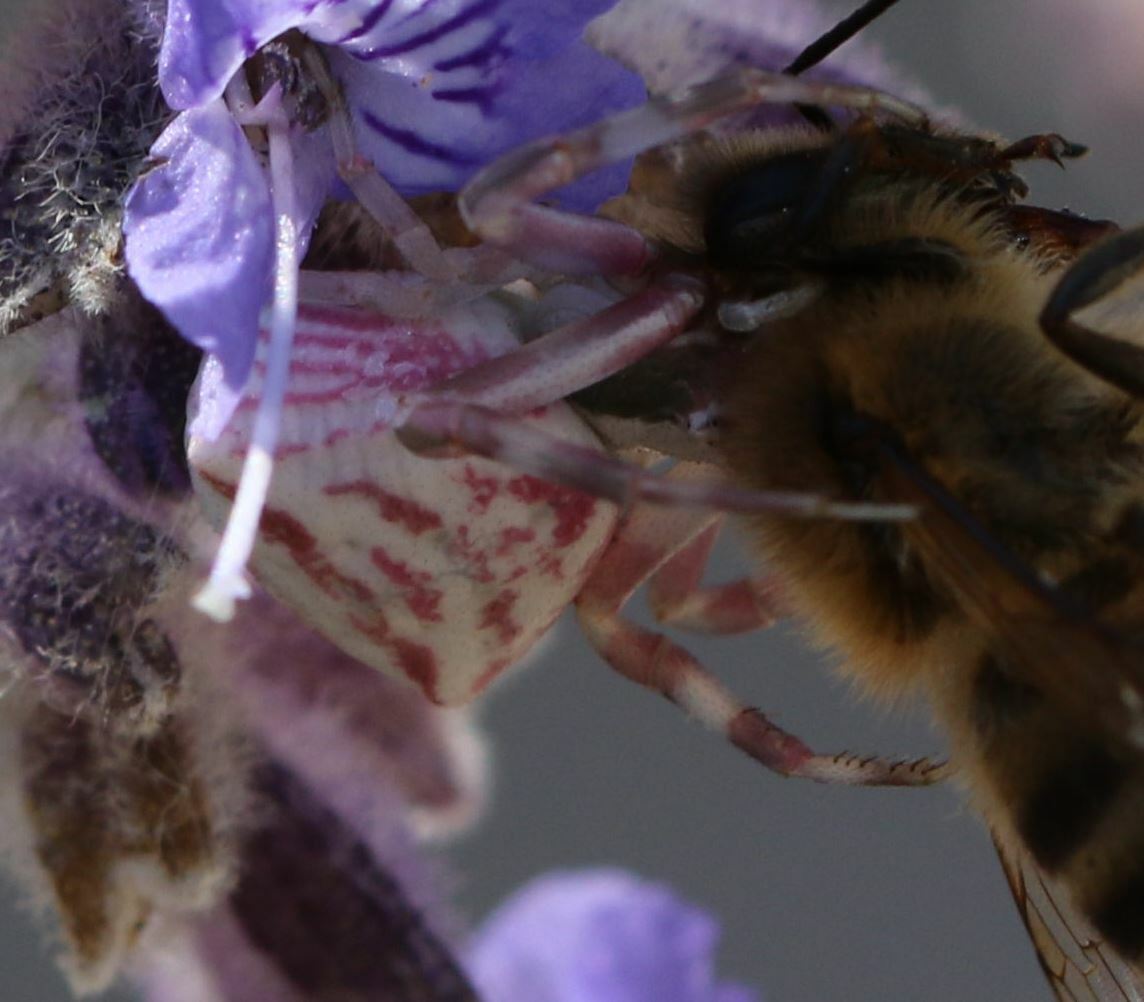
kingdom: Animalia
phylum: Arthropoda
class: Arachnida
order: Araneae
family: Thomisidae
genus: Thomisus
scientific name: Thomisus onustus
